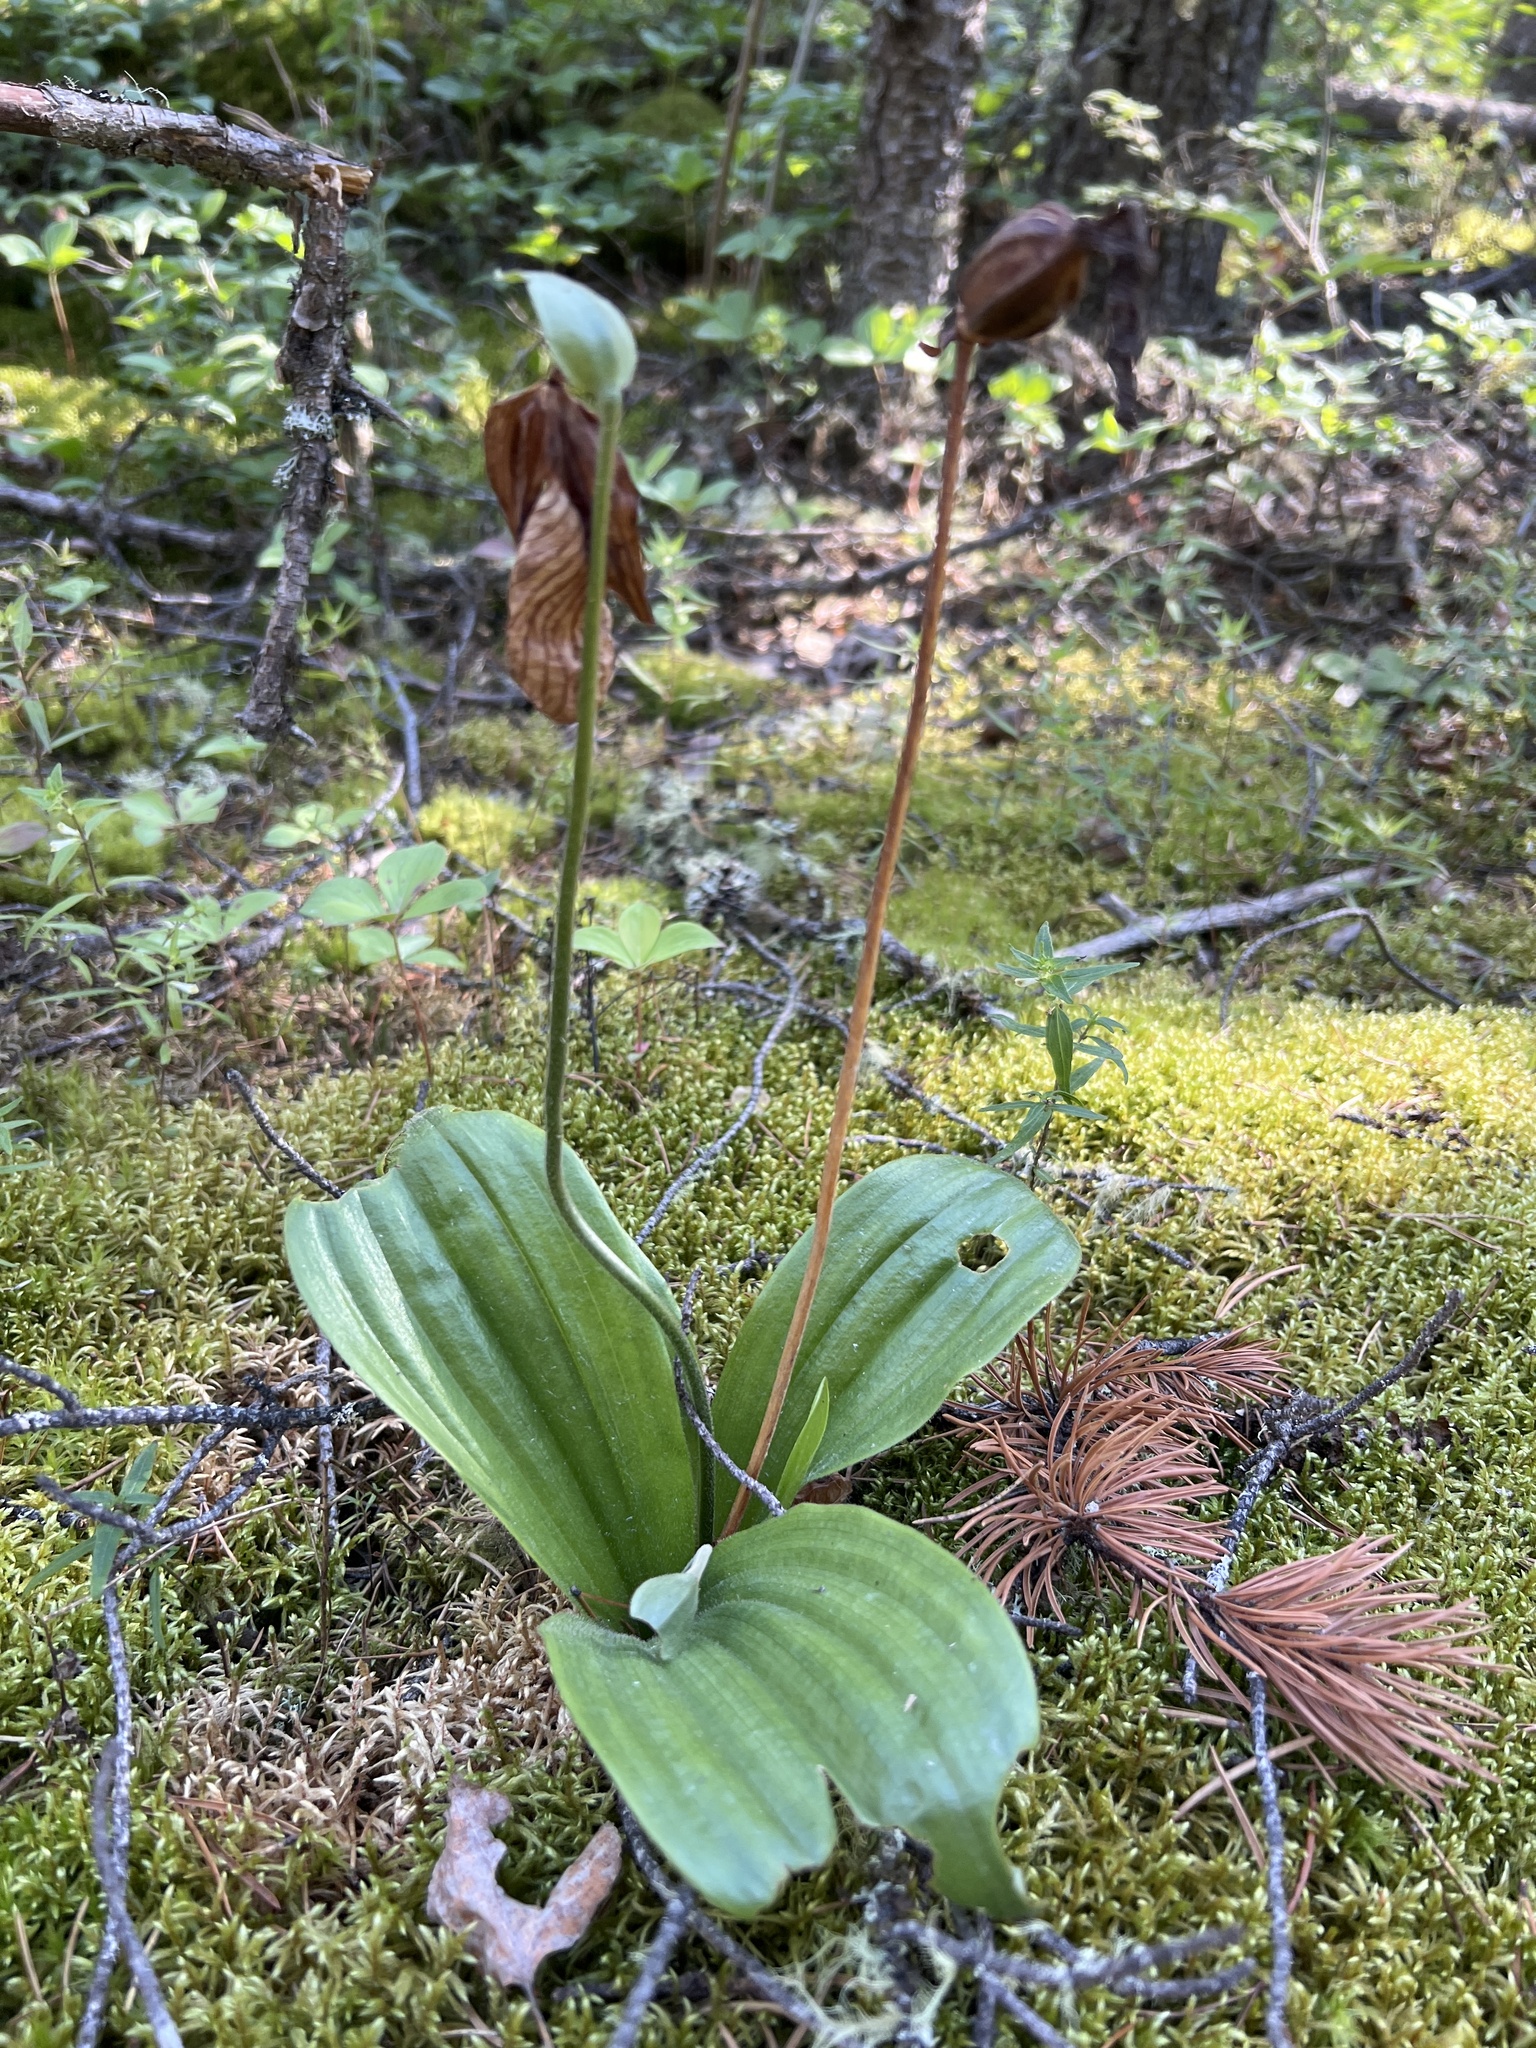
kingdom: Plantae
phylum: Tracheophyta
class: Liliopsida
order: Asparagales
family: Orchidaceae
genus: Cypripedium
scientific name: Cypripedium acaule
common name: Pink lady's-slipper
